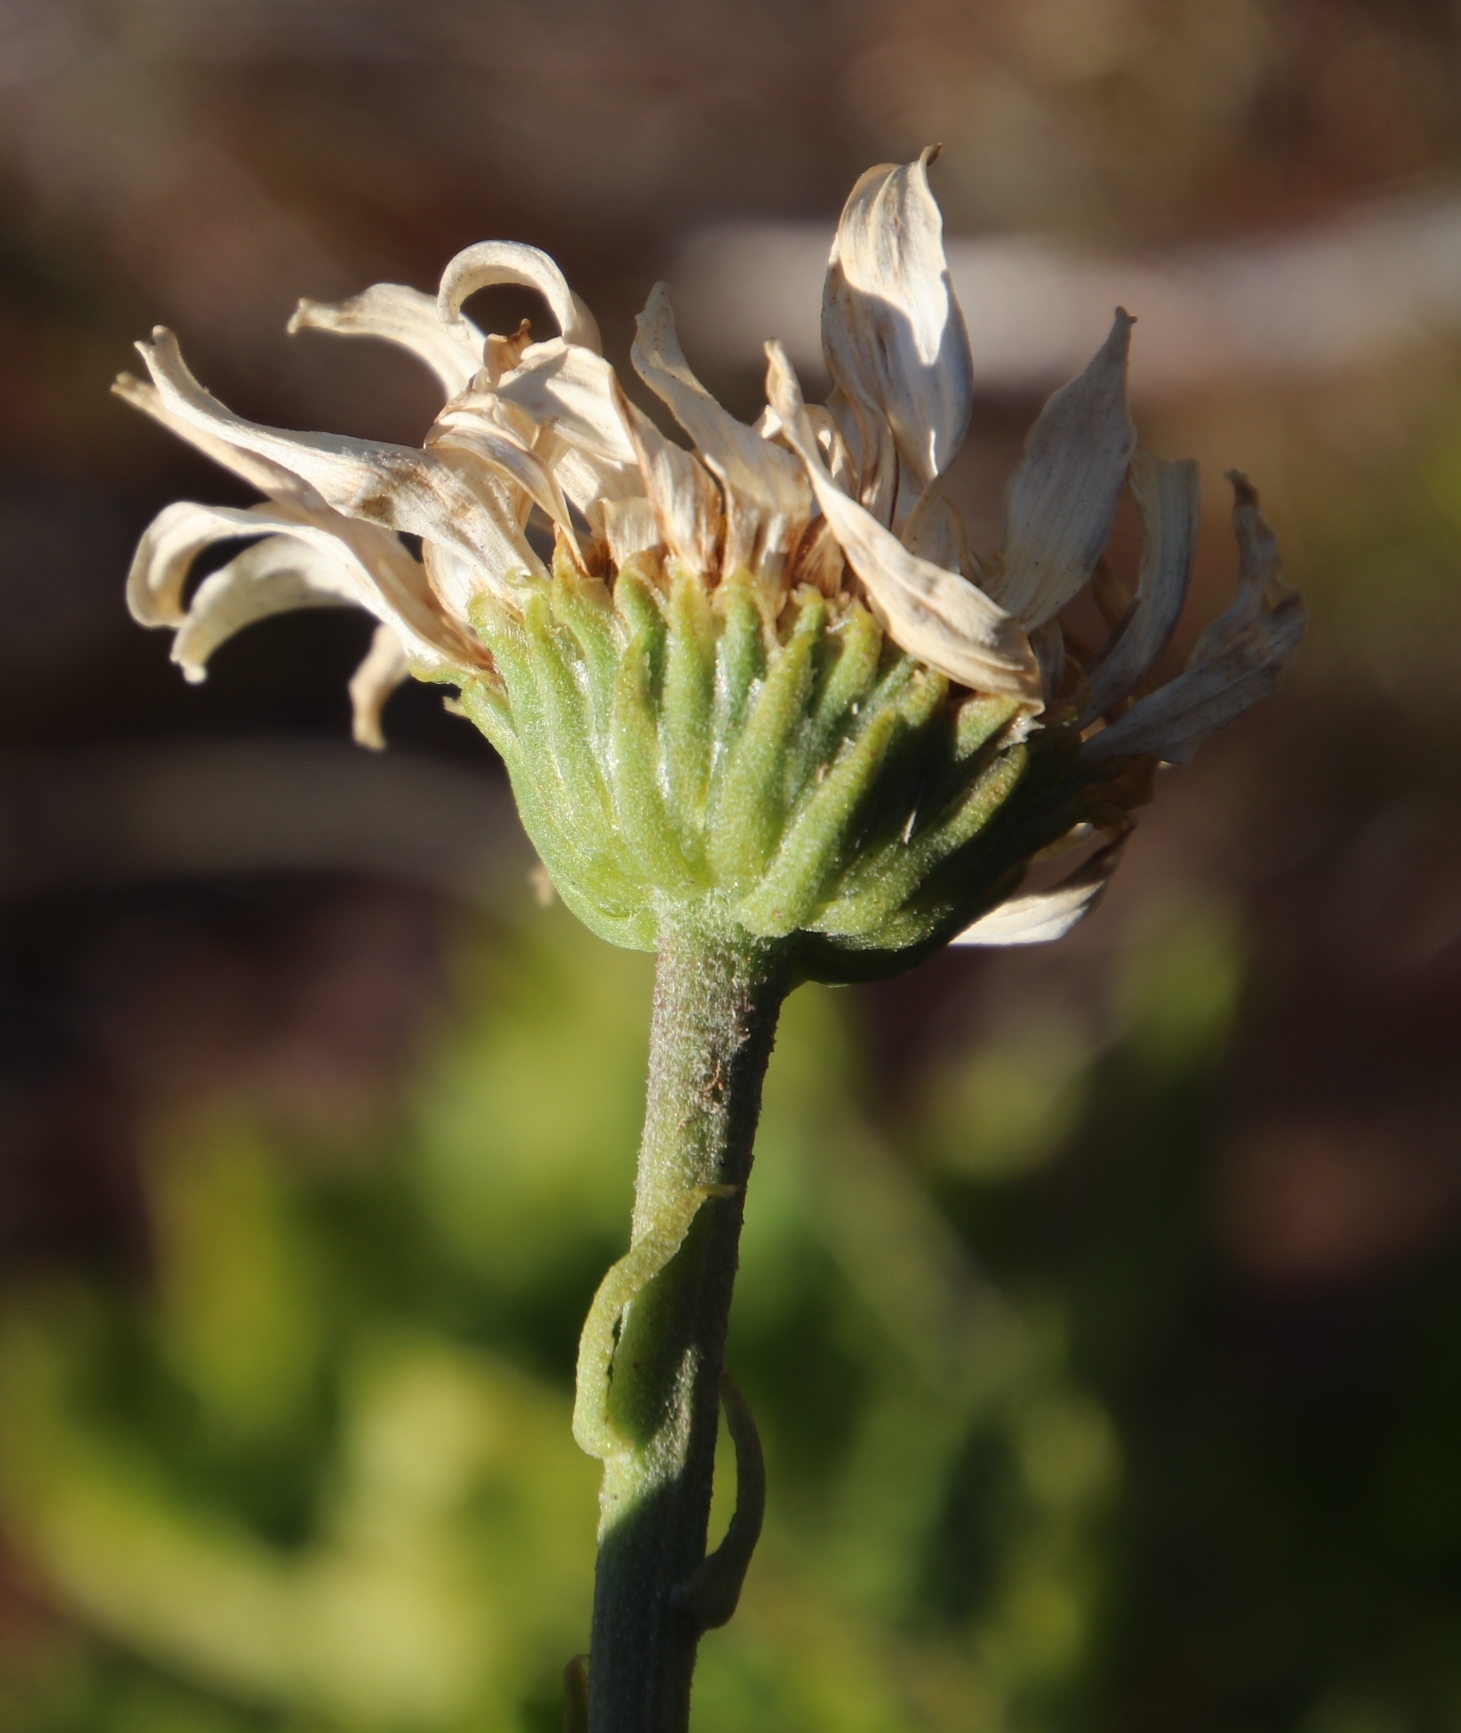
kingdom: Plantae
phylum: Tracheophyta
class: Magnoliopsida
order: Asterales
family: Asteraceae
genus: Osmitopsis
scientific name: Osmitopsis dentata
